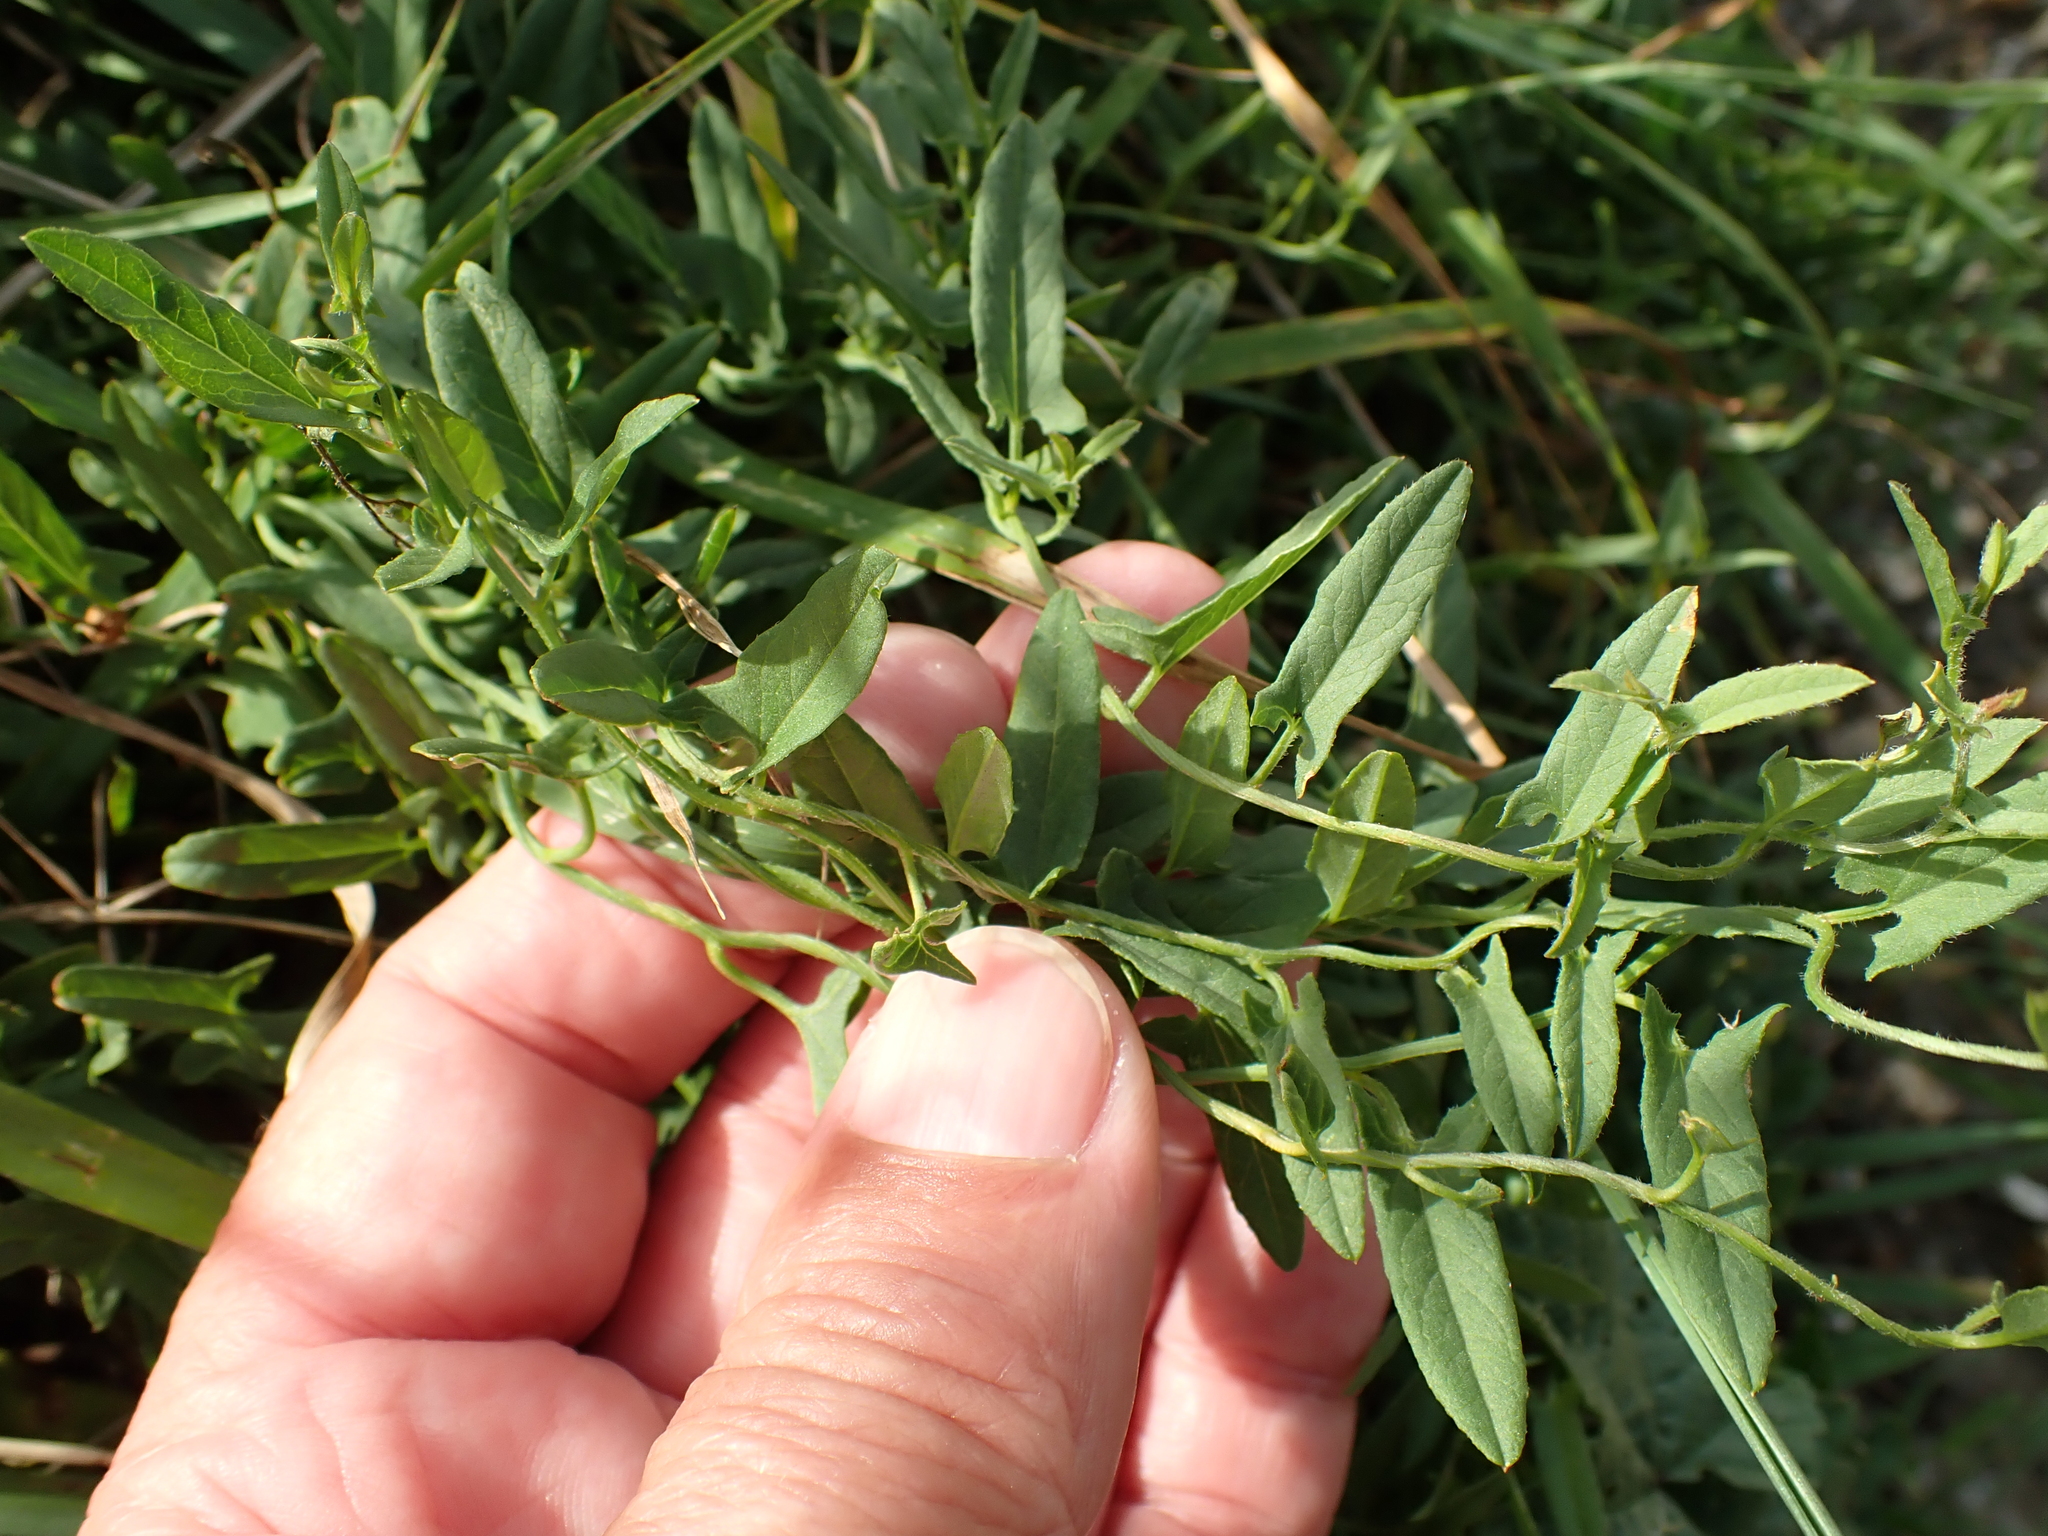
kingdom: Plantae
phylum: Tracheophyta
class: Magnoliopsida
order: Solanales
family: Convolvulaceae
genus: Convolvulus
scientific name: Convolvulus arvensis
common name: Field bindweed
